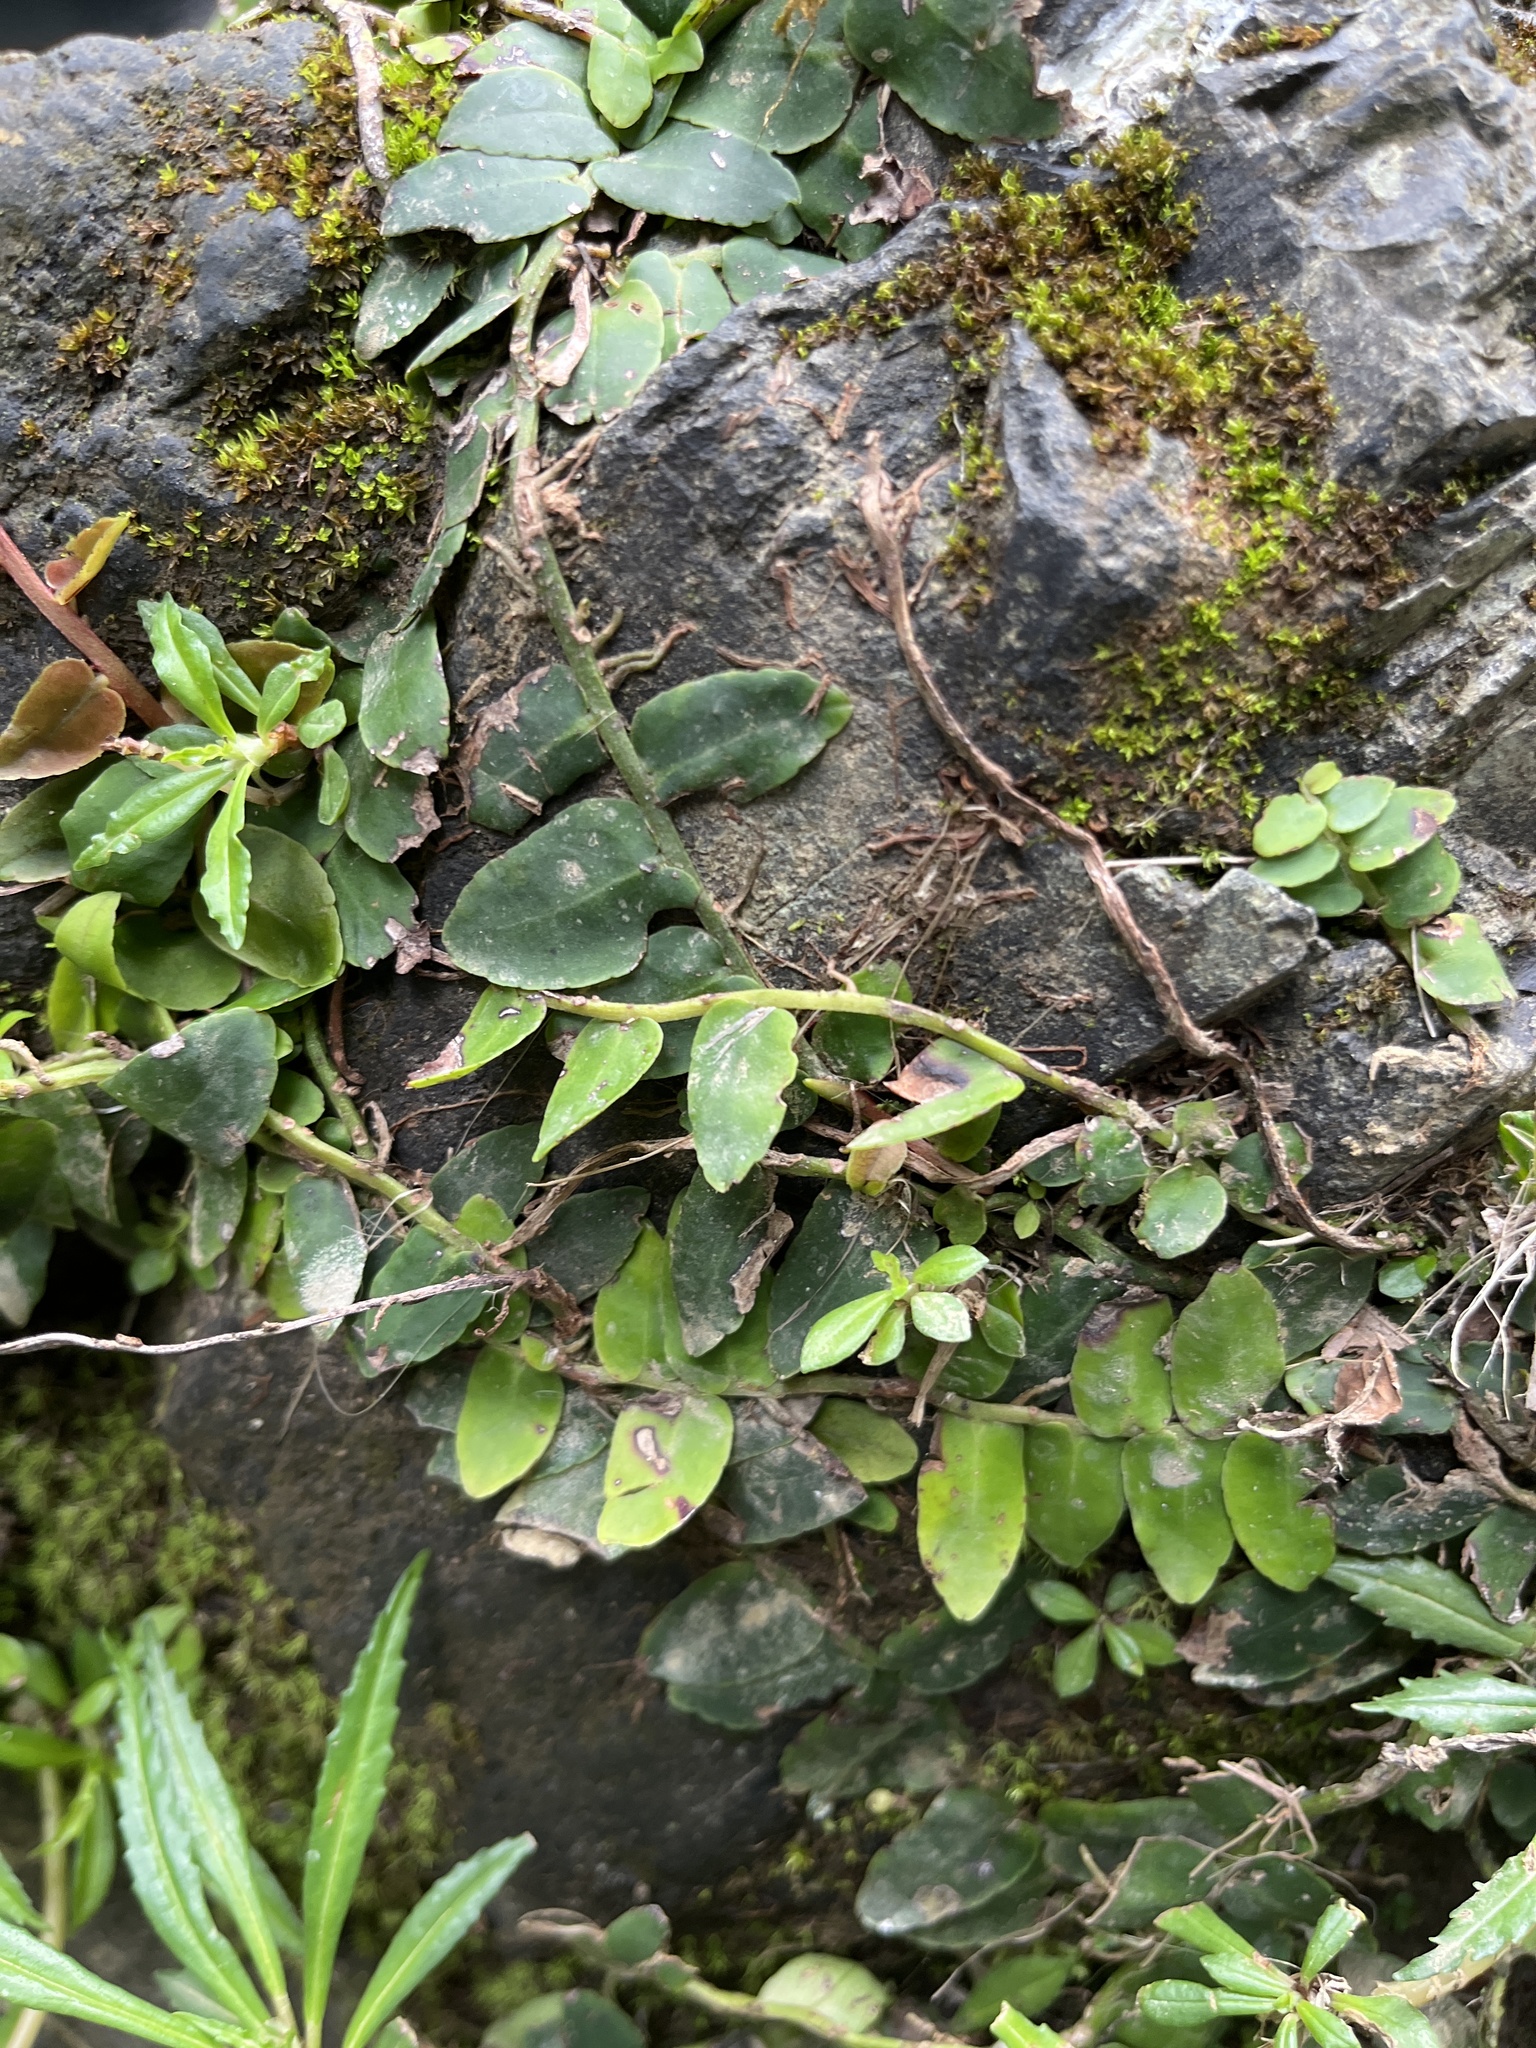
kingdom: Plantae
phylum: Tracheophyta
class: Magnoliopsida
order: Ericales
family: Marcgraviaceae
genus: Marcgravia
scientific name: Marcgravia rectiflora
